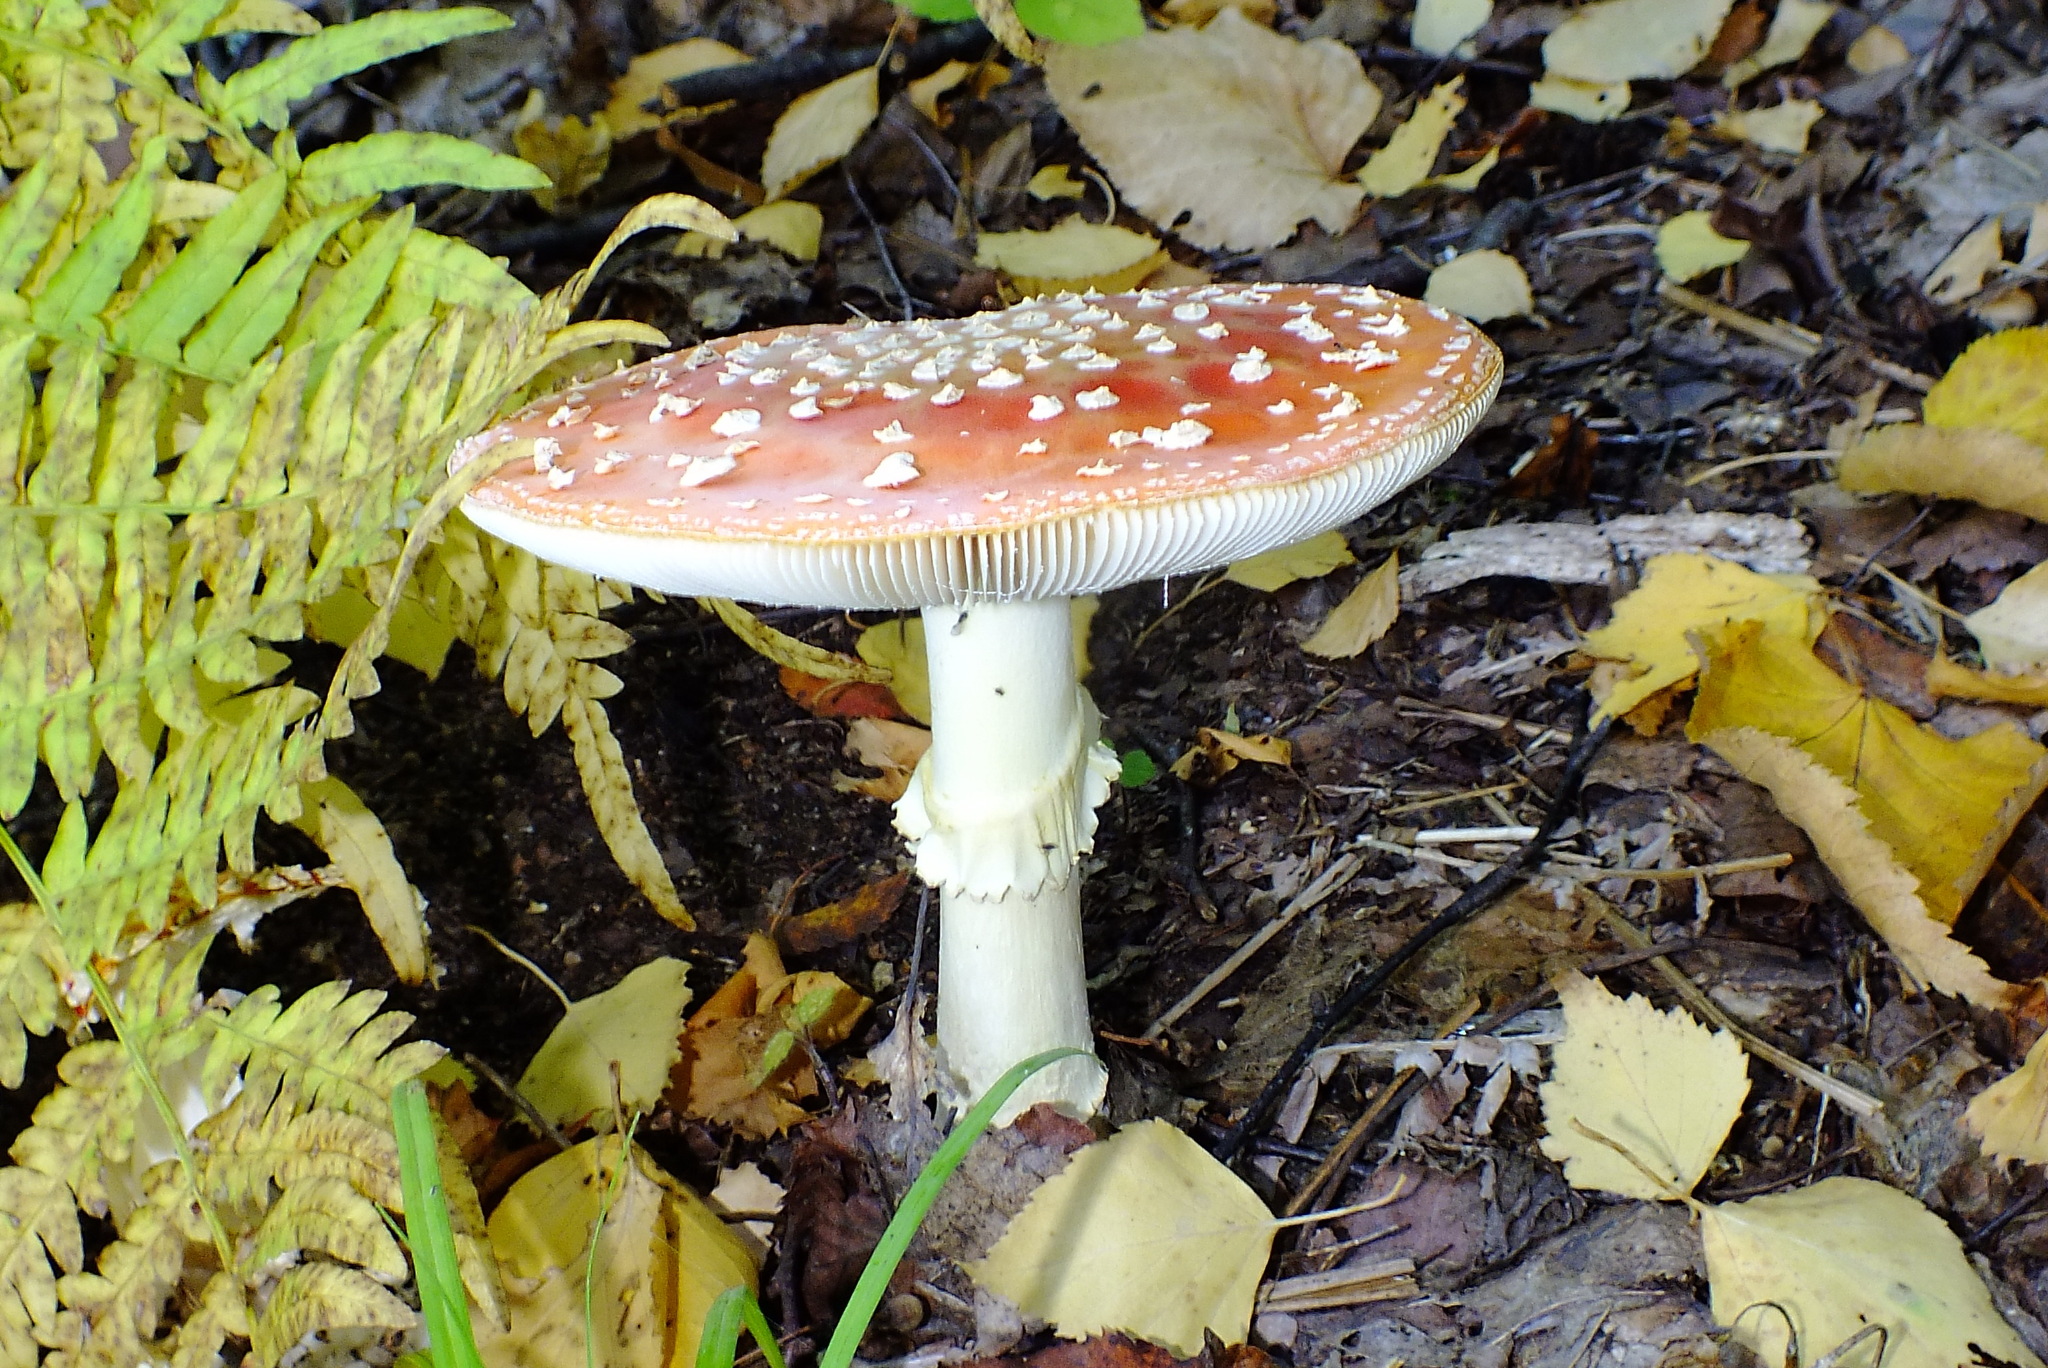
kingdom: Fungi
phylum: Basidiomycota
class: Agaricomycetes
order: Agaricales
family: Amanitaceae
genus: Amanita
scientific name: Amanita muscaria
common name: Fly agaric
